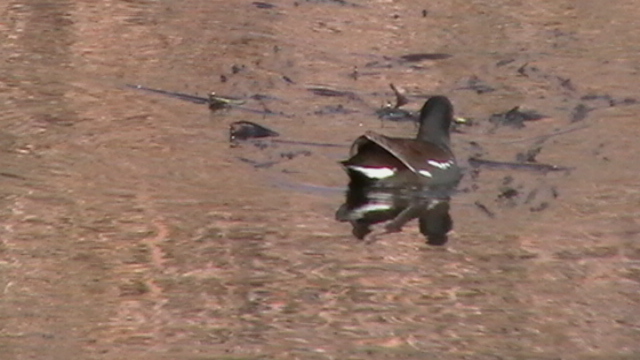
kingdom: Animalia
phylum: Chordata
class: Aves
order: Gruiformes
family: Rallidae
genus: Gallinula
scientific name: Gallinula chloropus
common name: Common moorhen
